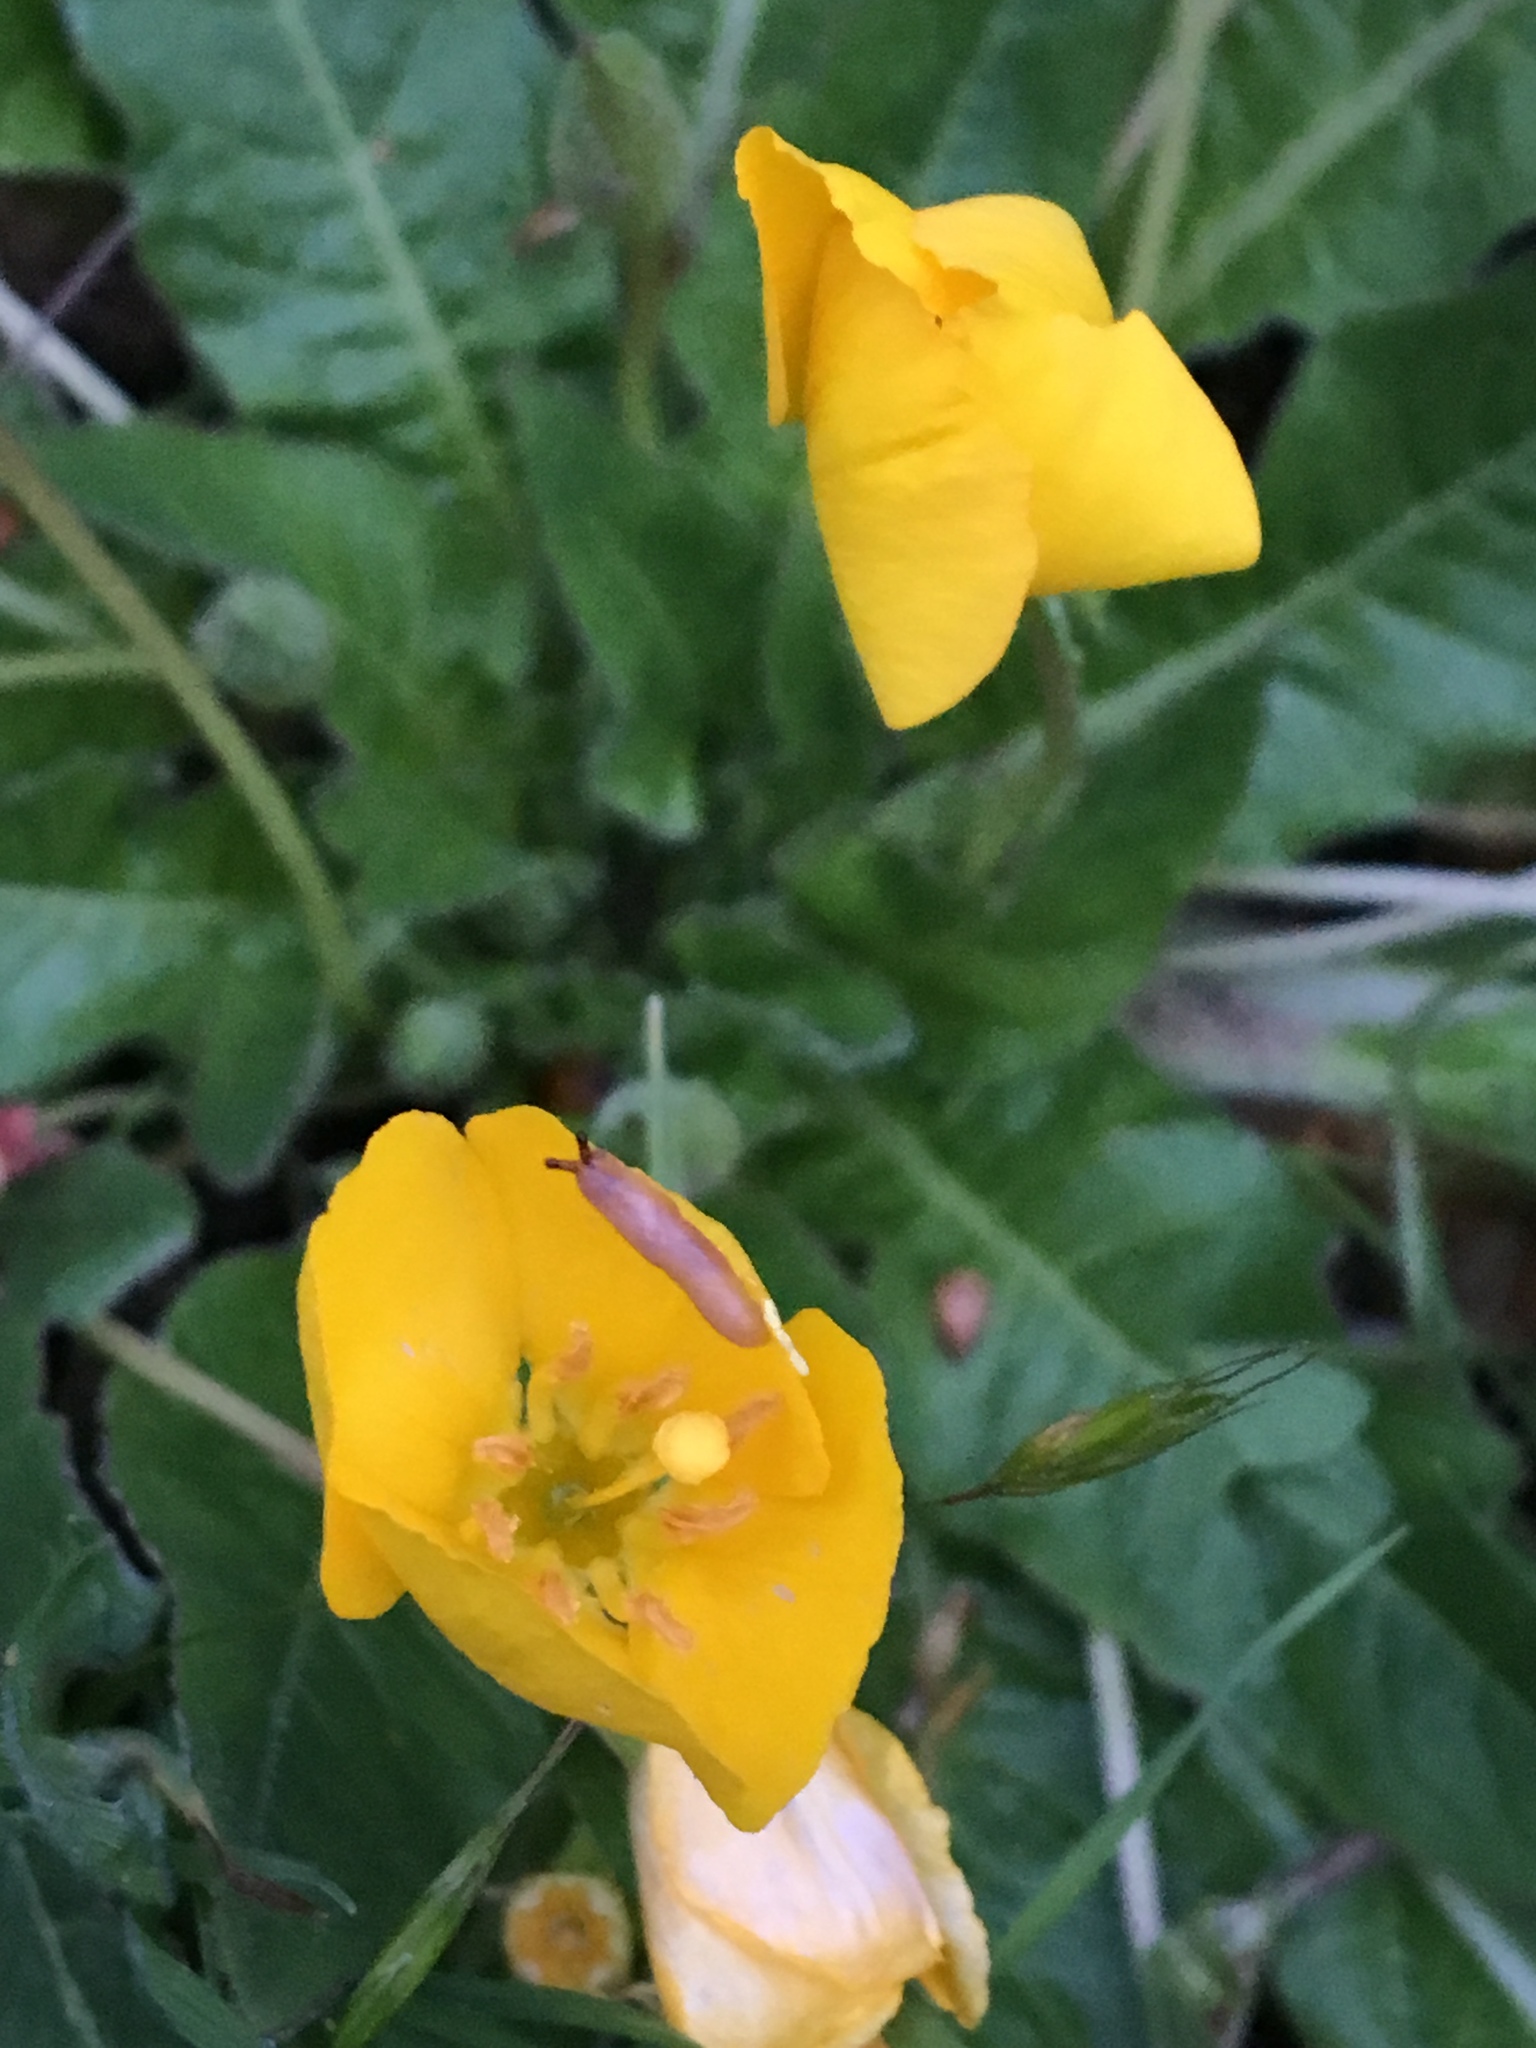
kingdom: Plantae
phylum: Tracheophyta
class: Magnoliopsida
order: Myrtales
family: Onagraceae
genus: Taraxia
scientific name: Taraxia ovata
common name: Goldeneggs
